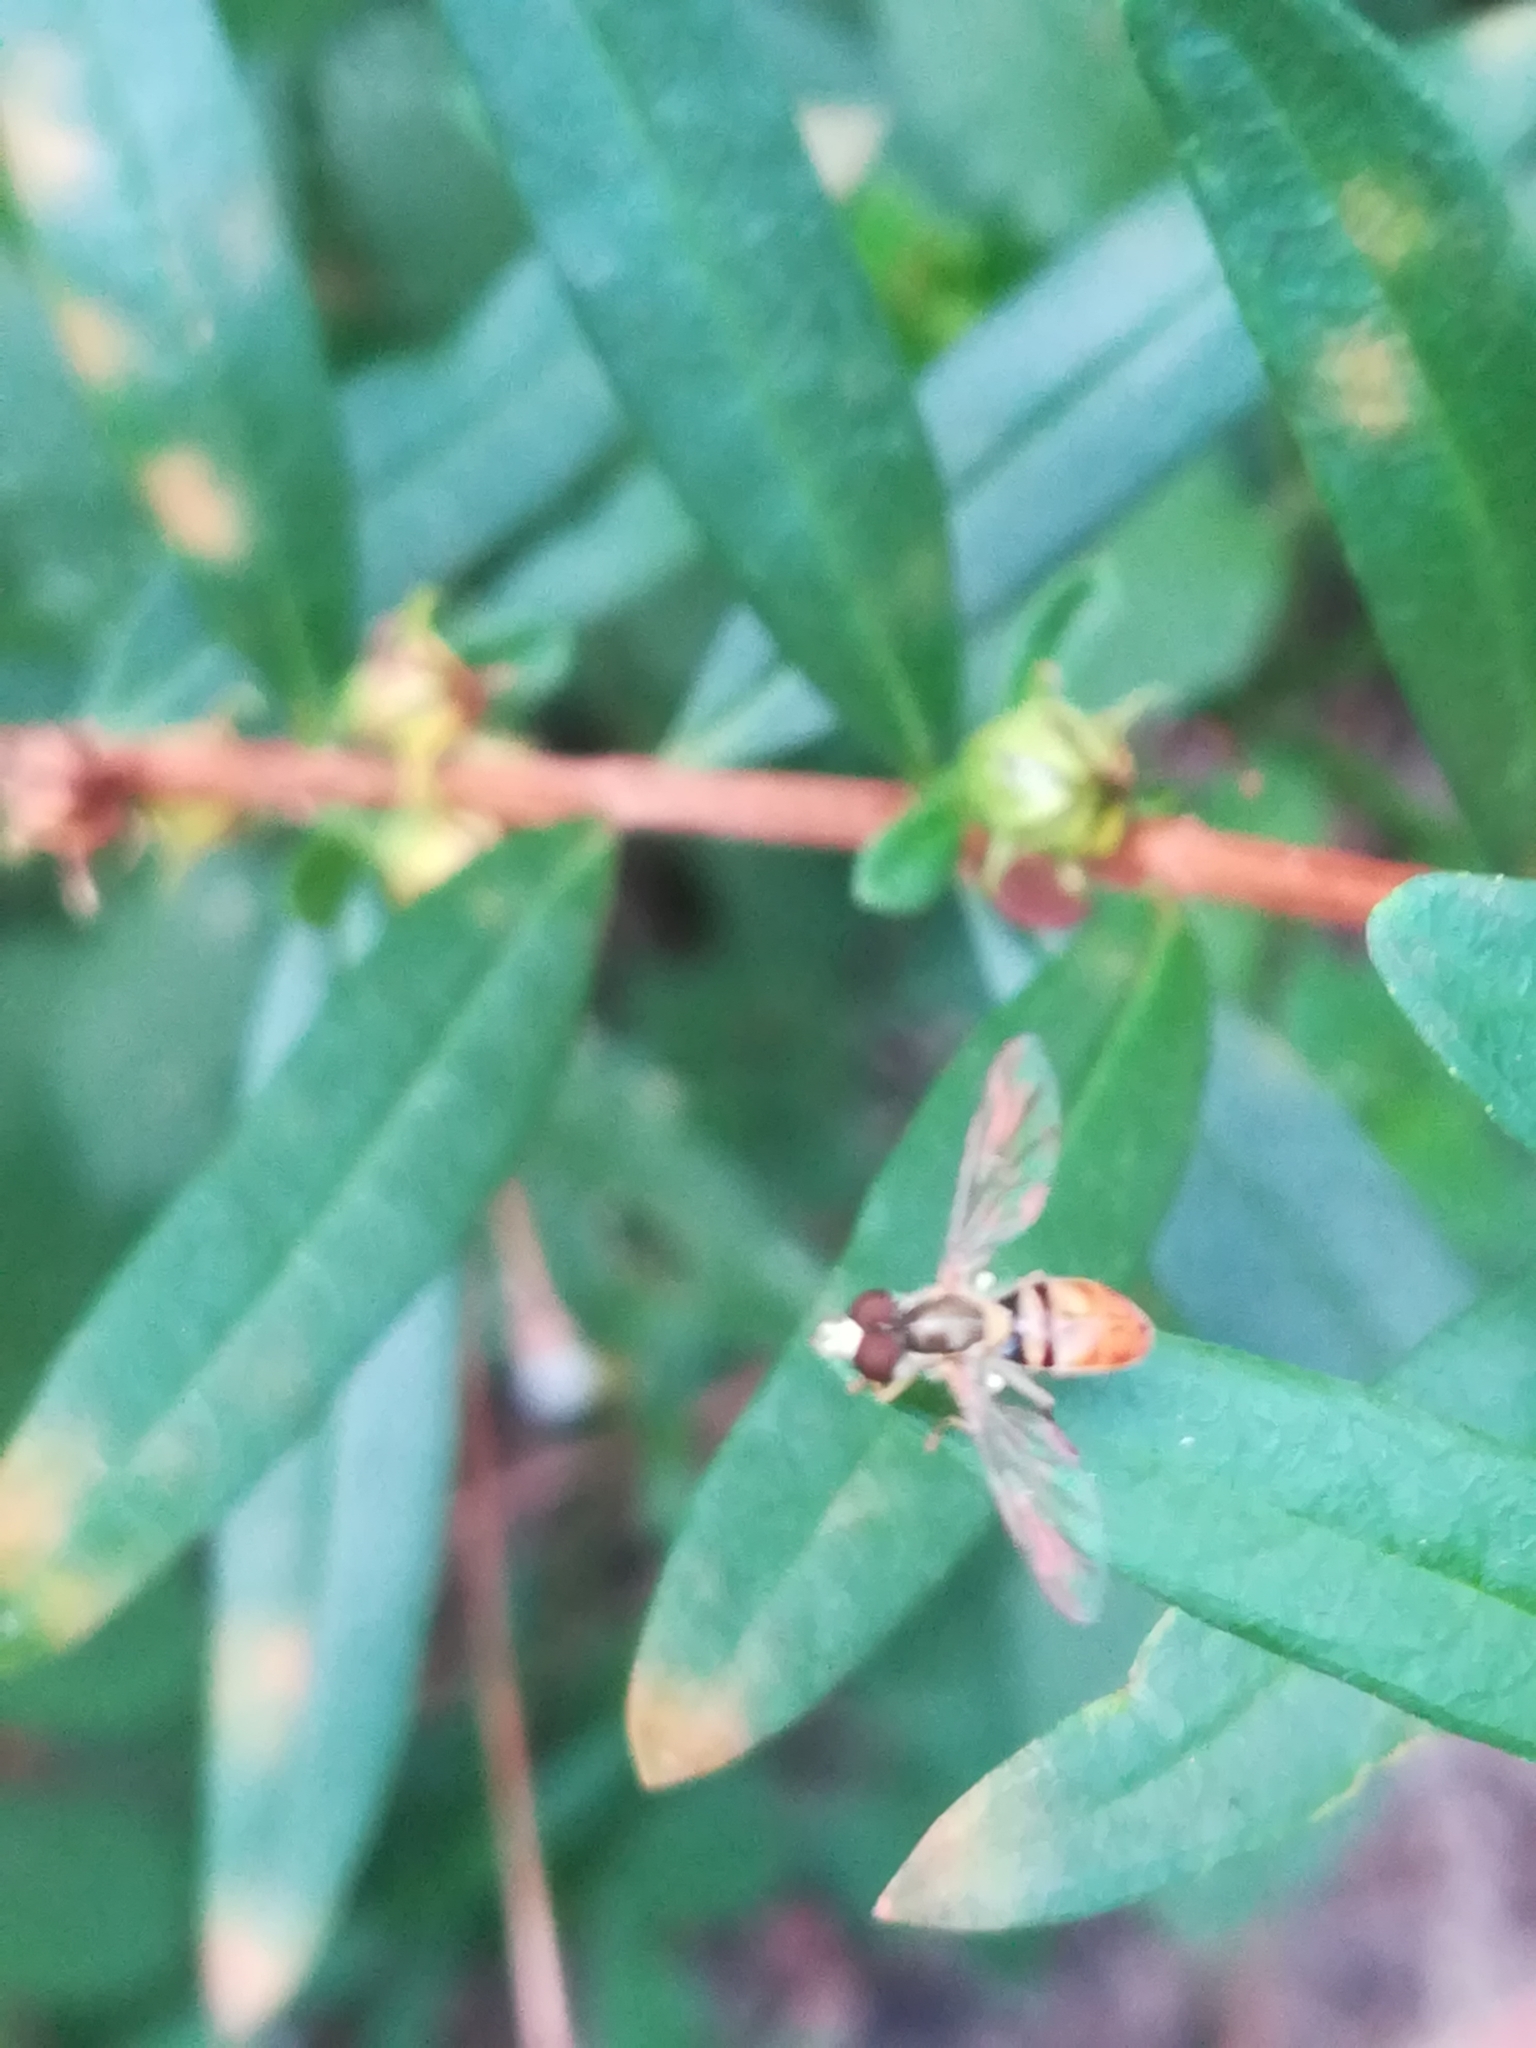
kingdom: Animalia
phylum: Arthropoda
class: Insecta
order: Diptera
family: Syrphidae
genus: Toxomerus
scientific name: Toxomerus marginatus
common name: Syrphid fly
